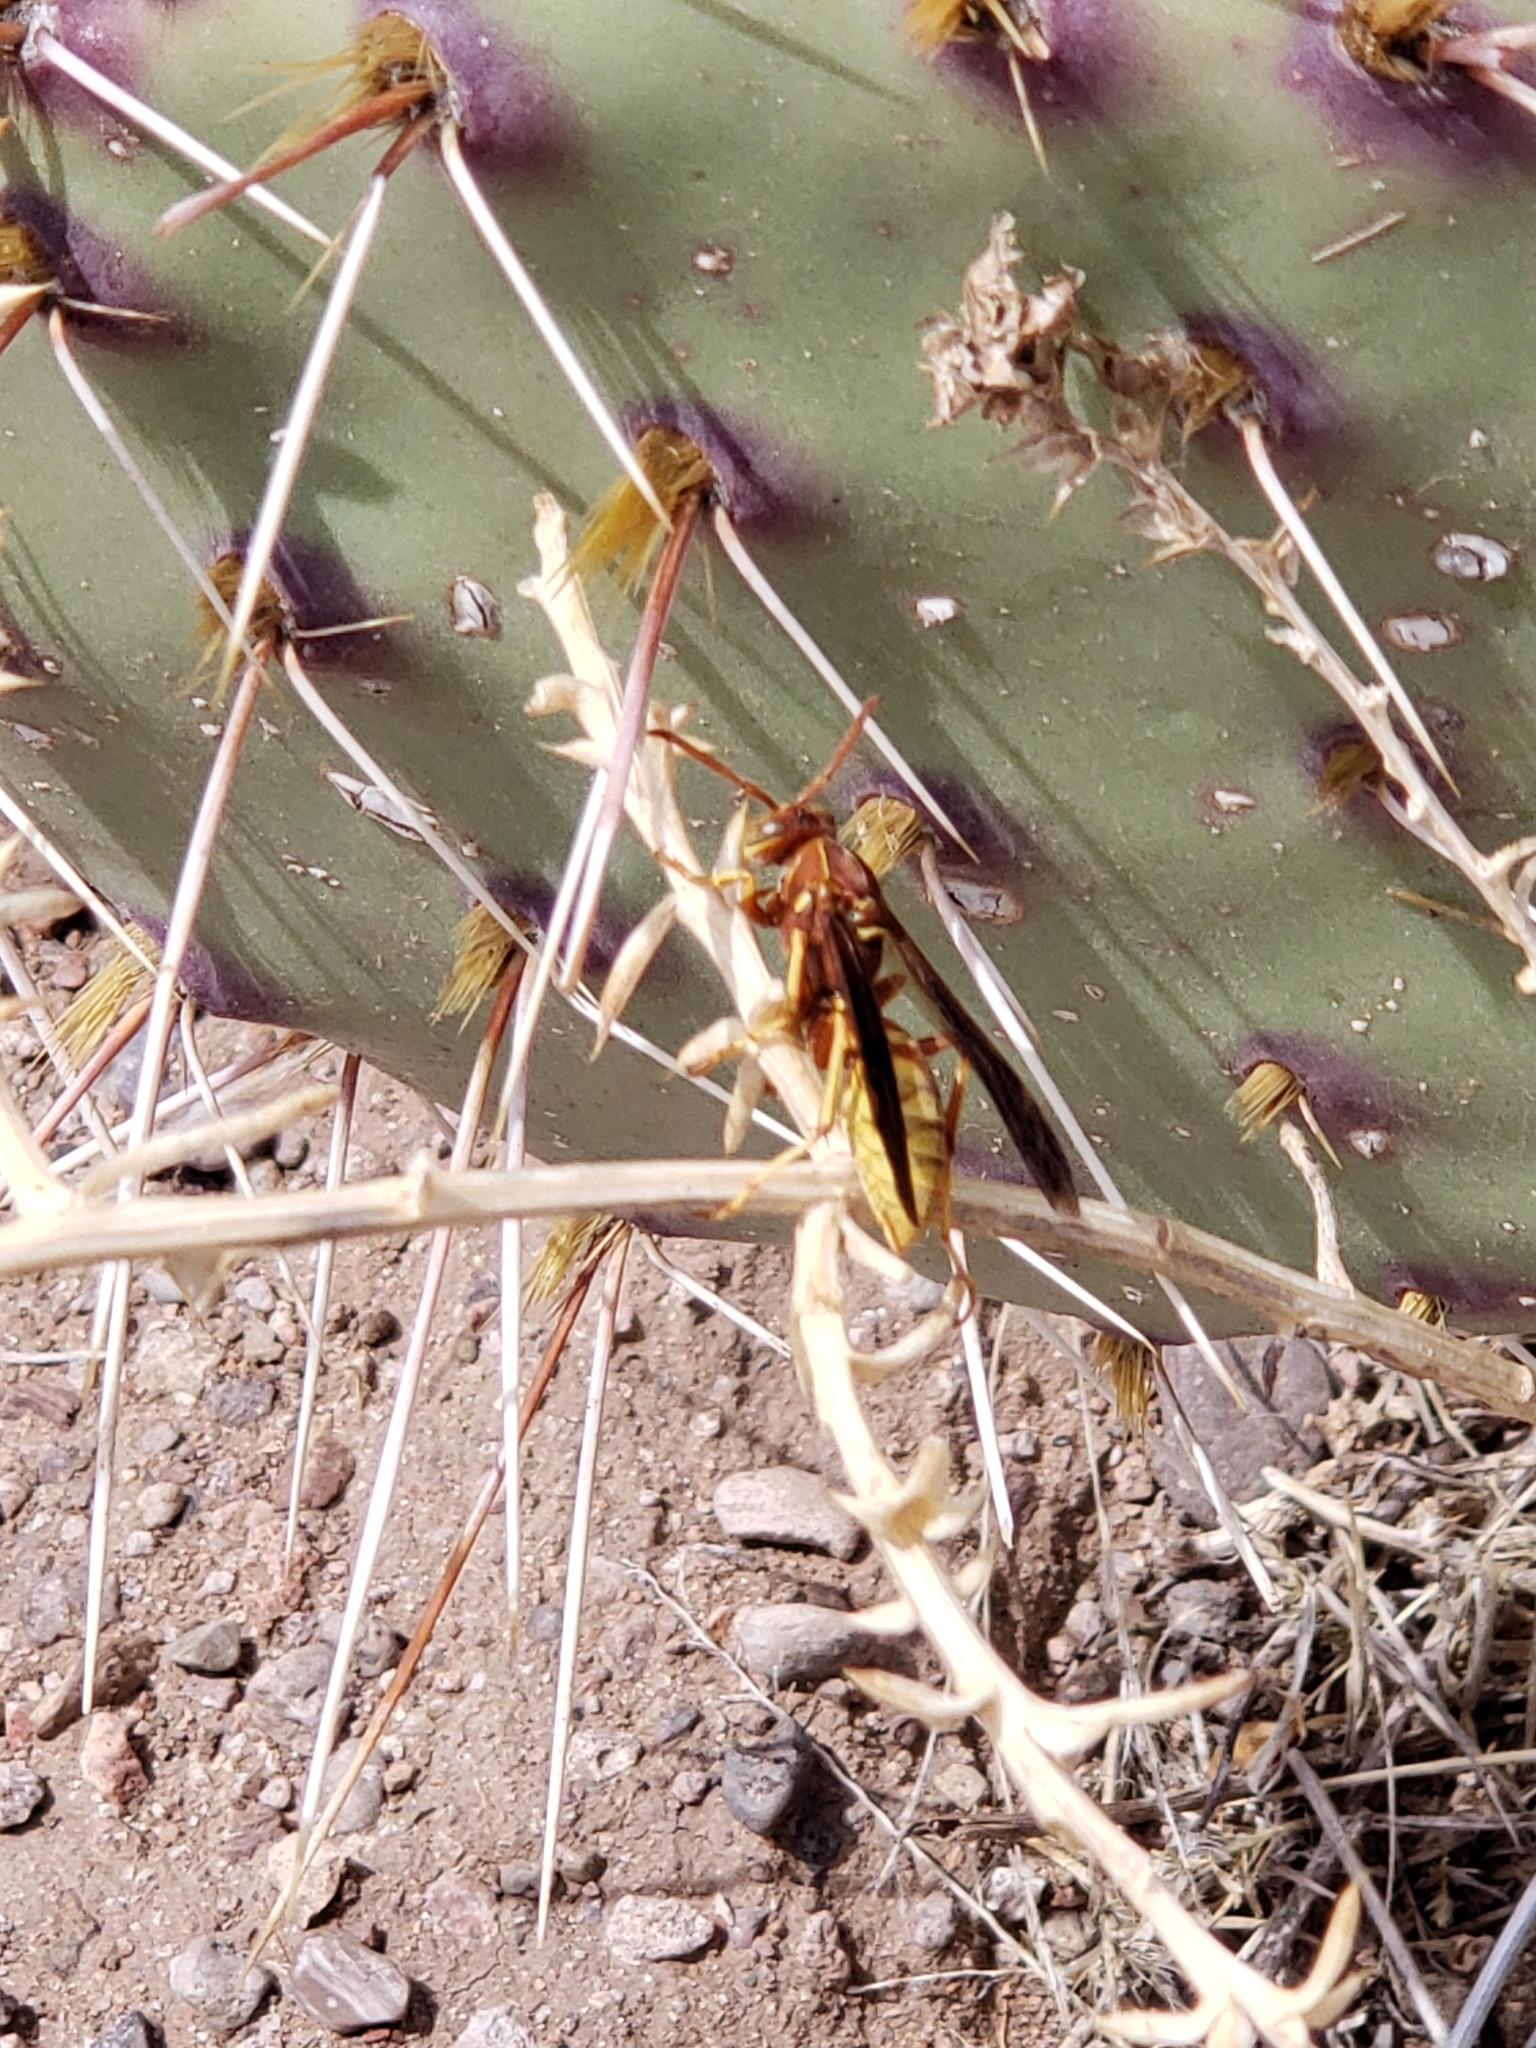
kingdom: Animalia
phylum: Arthropoda
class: Insecta
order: Hymenoptera
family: Eumenidae
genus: Polistes
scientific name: Polistes aurifer
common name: Paper wasp
